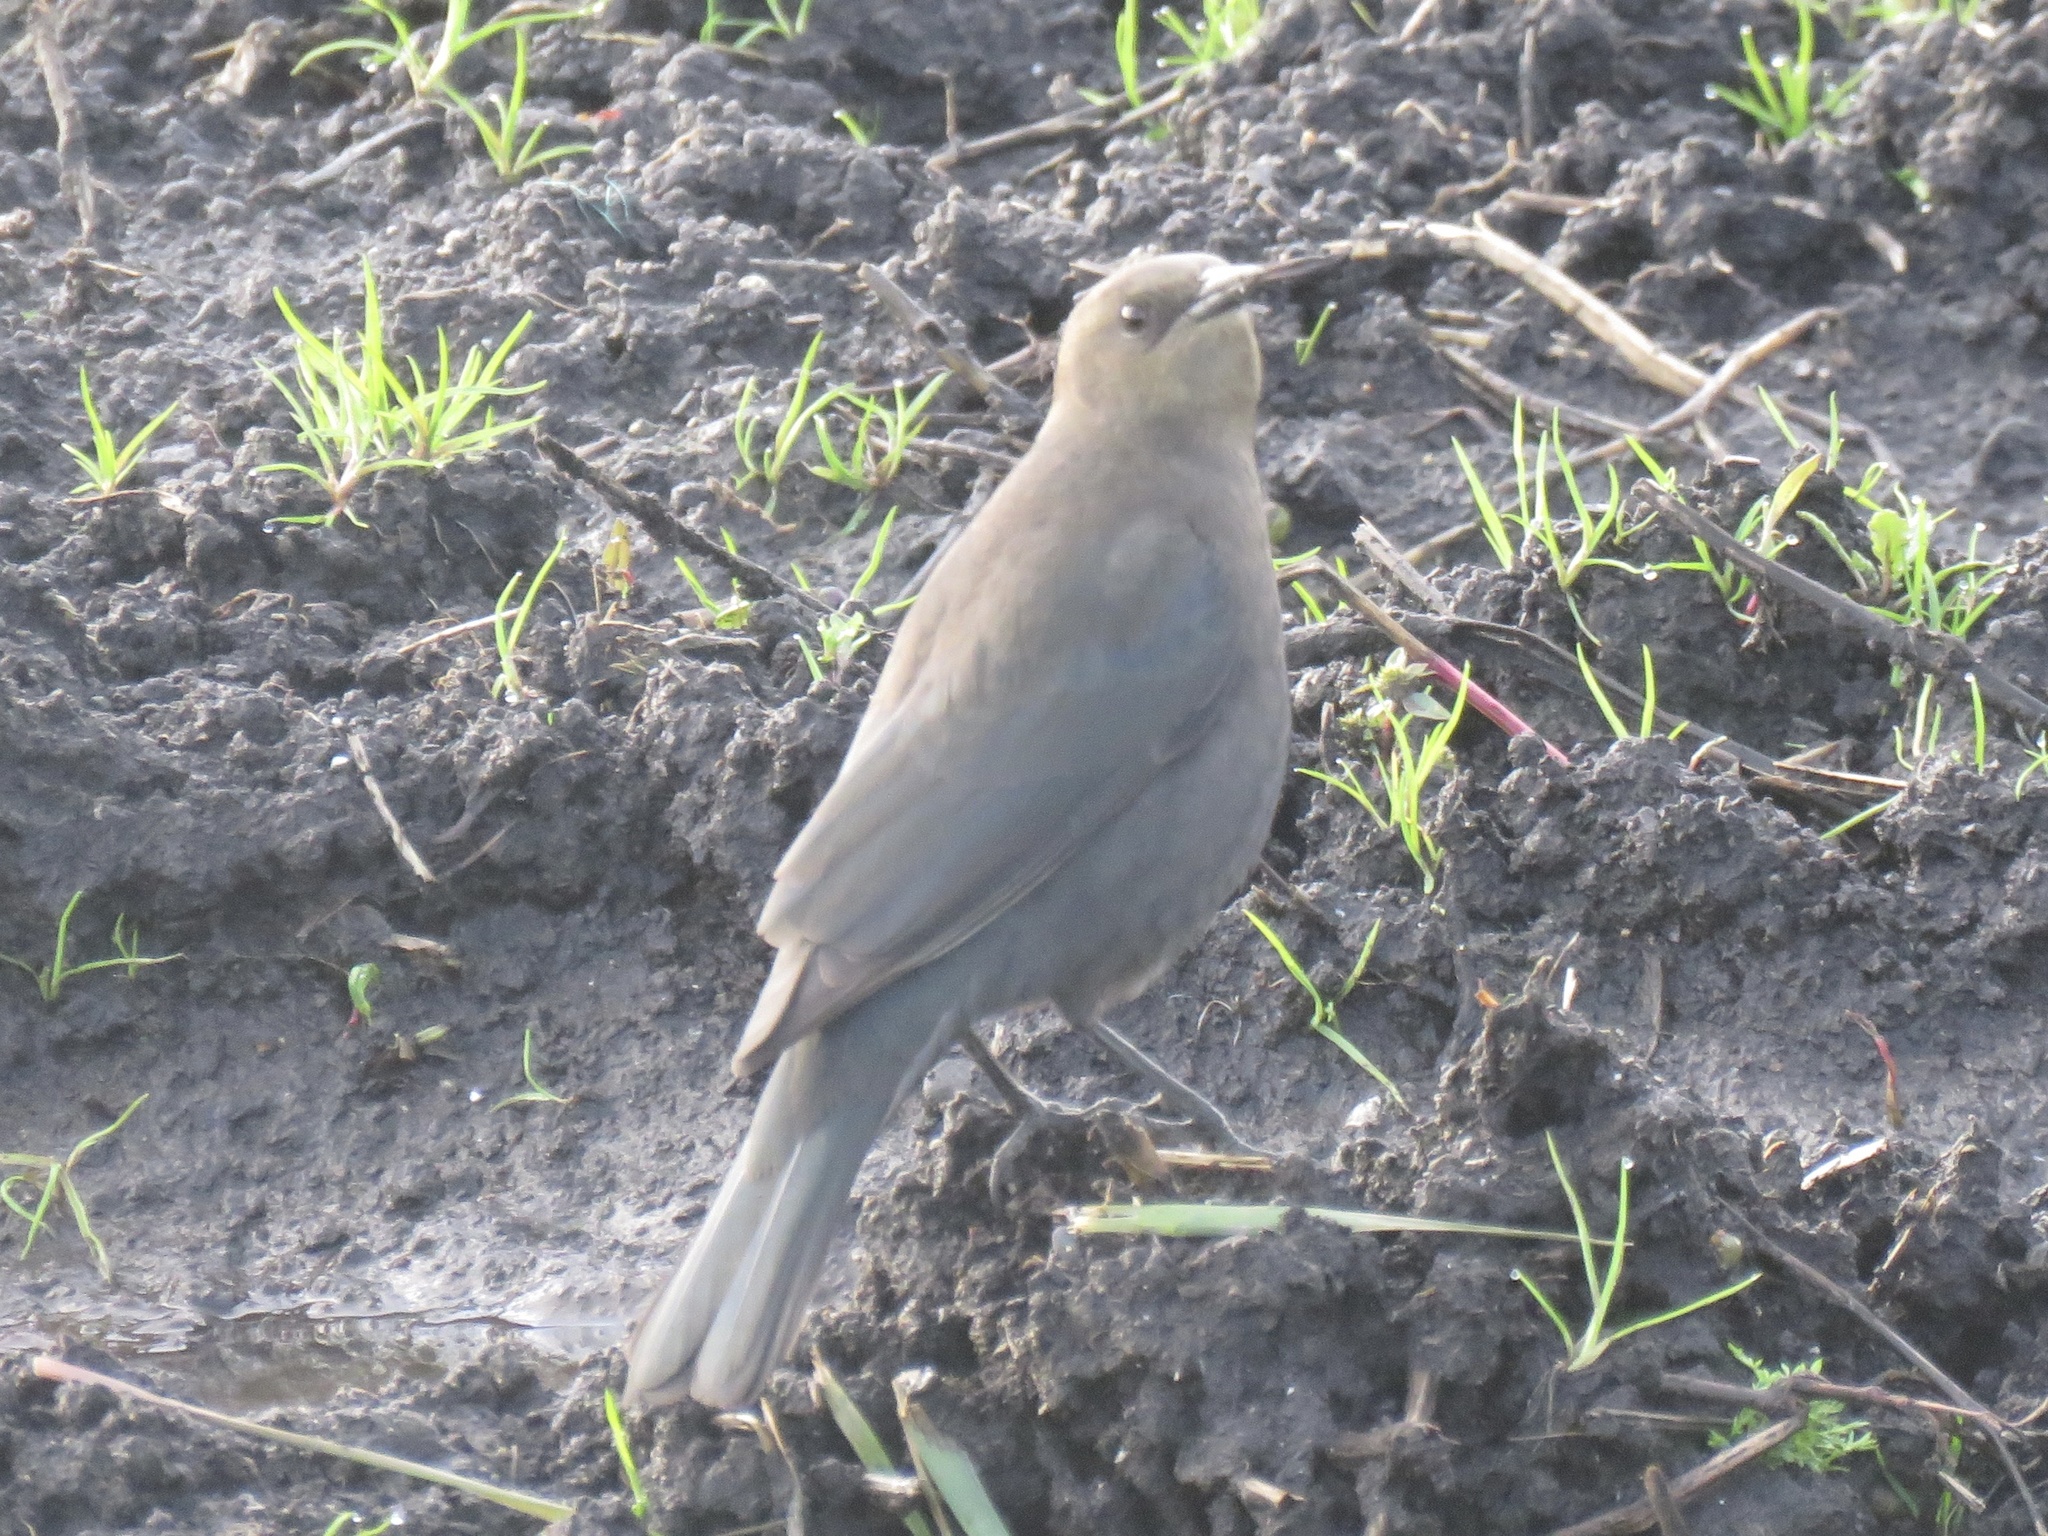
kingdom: Animalia
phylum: Chordata
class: Aves
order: Passeriformes
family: Icteridae
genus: Euphagus
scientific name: Euphagus cyanocephalus
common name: Brewer's blackbird
